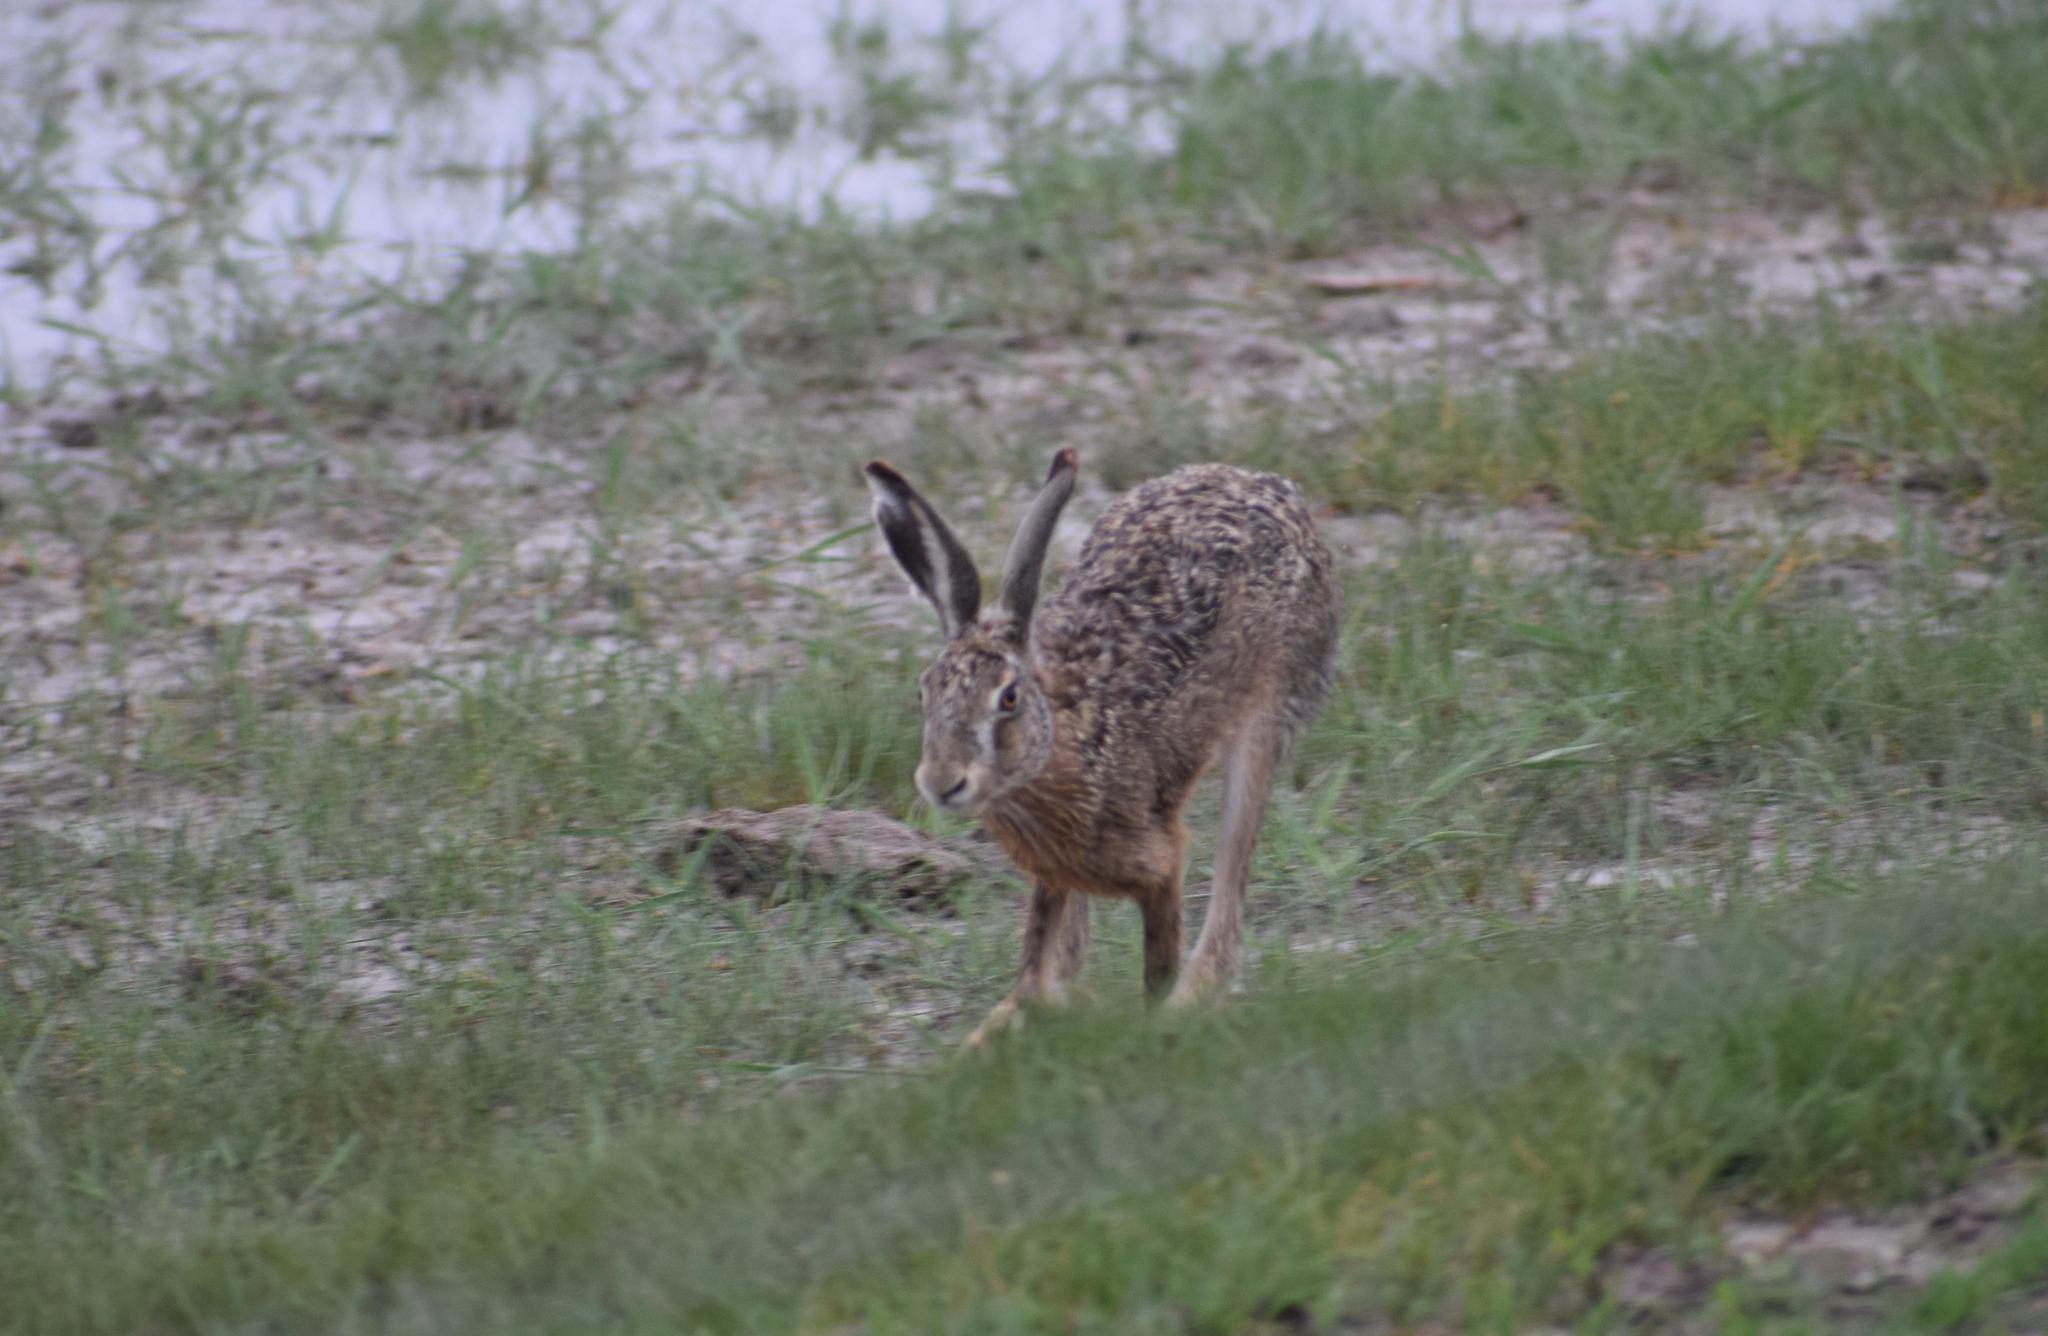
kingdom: Animalia
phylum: Chordata
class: Mammalia
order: Lagomorpha
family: Leporidae
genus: Lepus
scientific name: Lepus europaeus
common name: European hare
